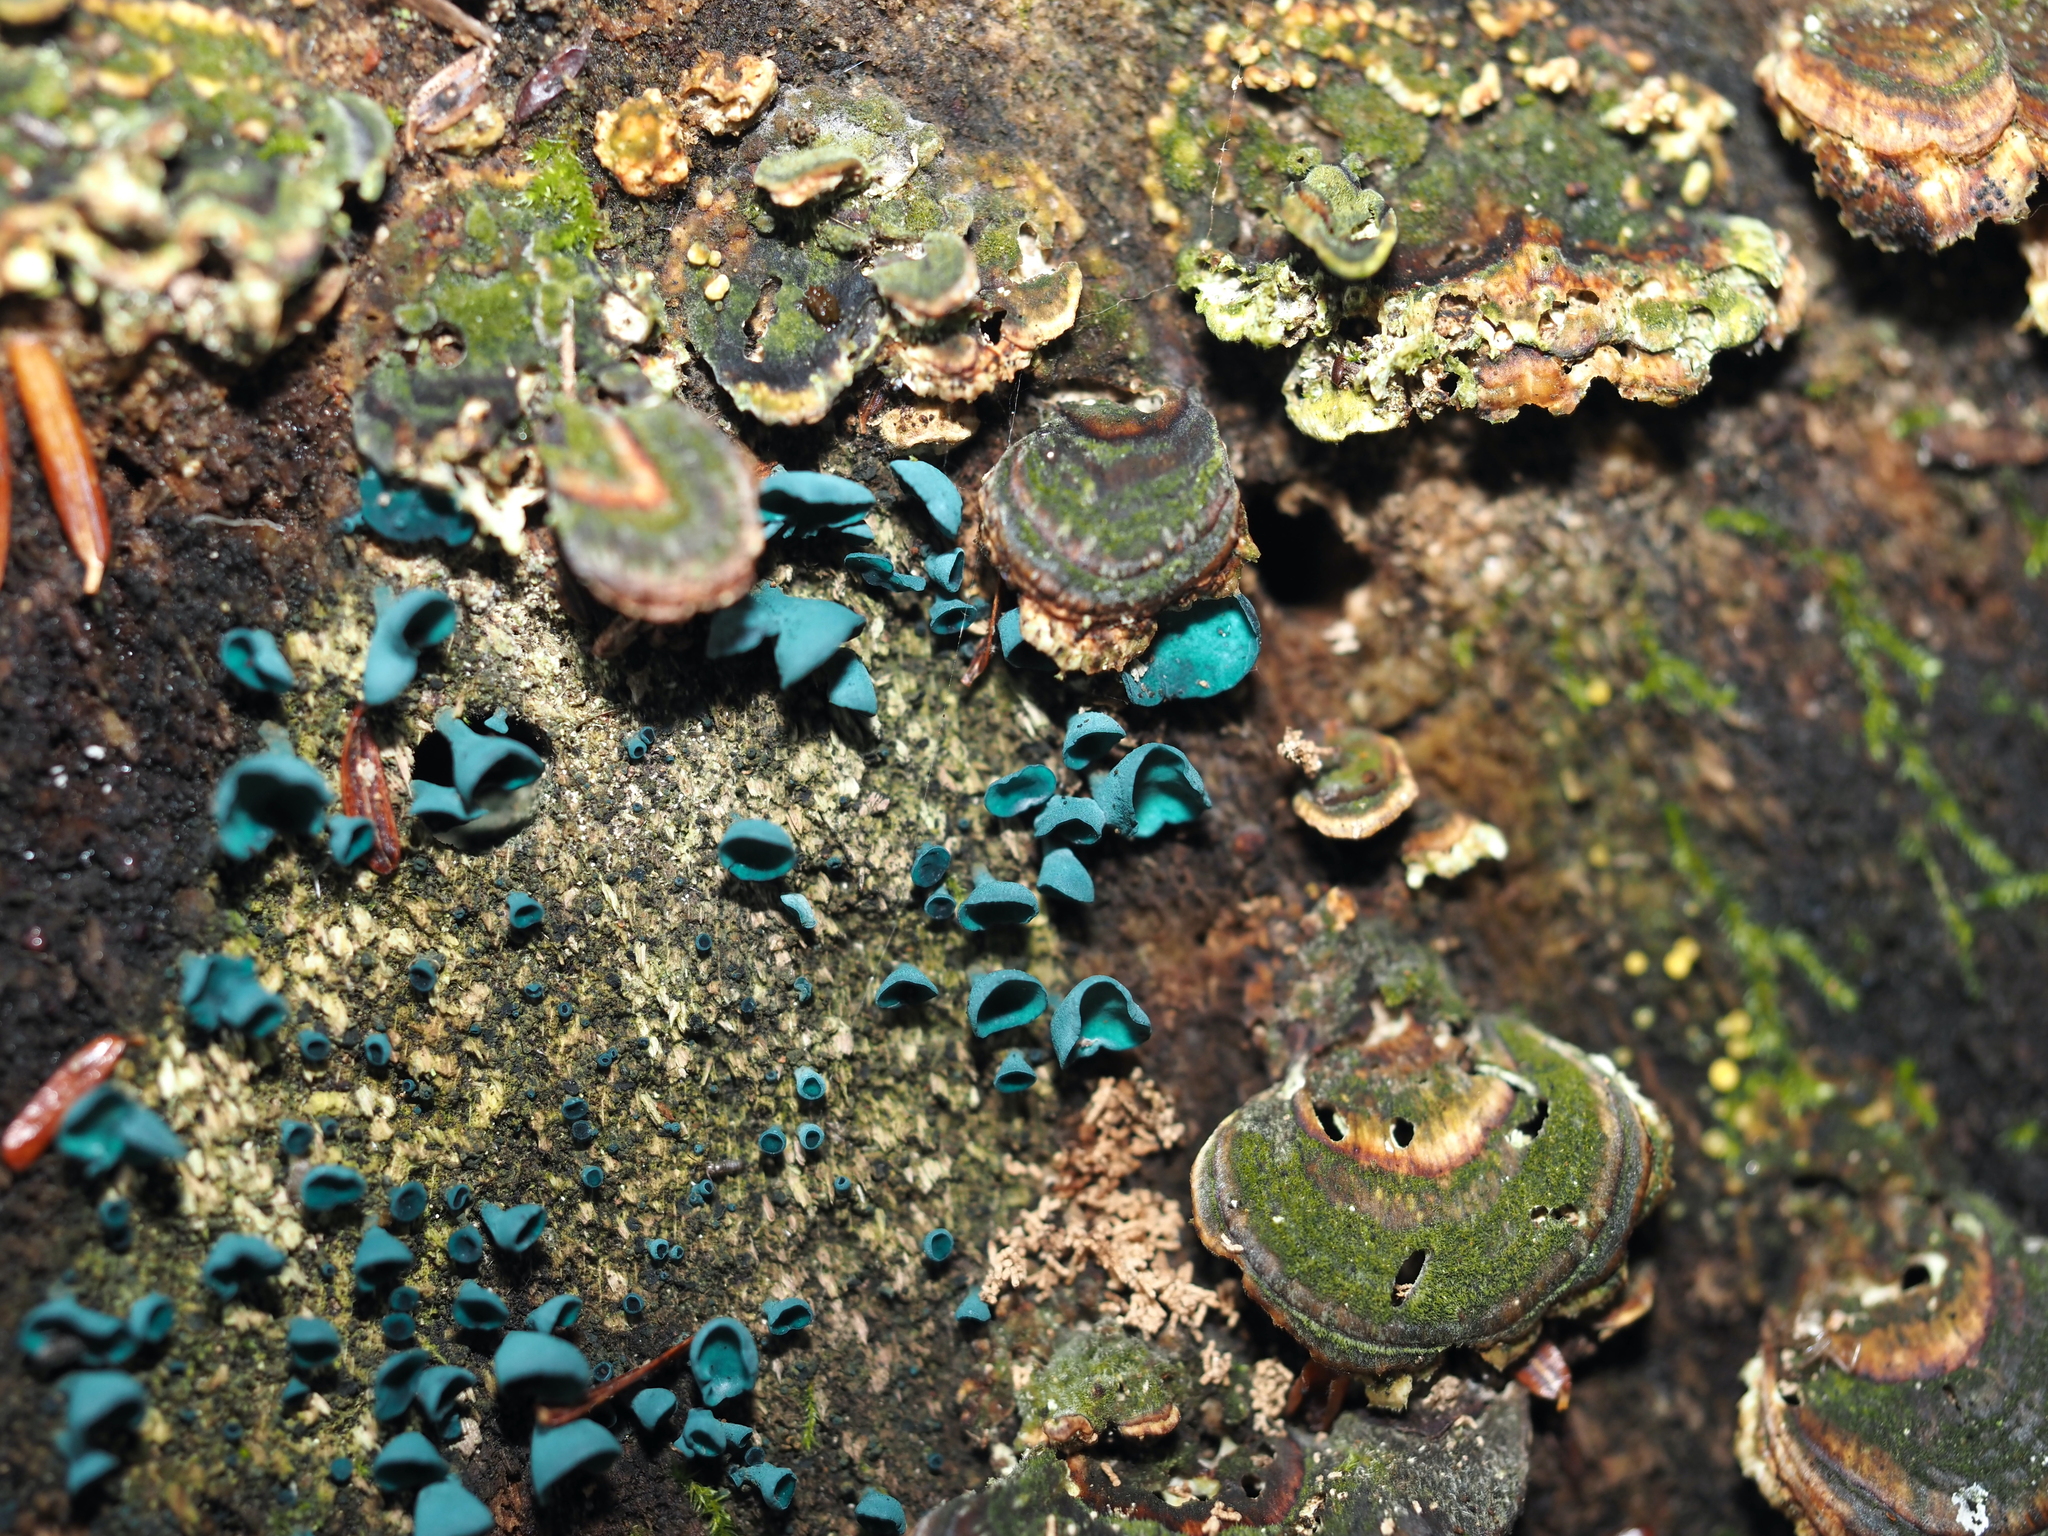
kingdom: Fungi
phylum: Ascomycota
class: Leotiomycetes
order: Helotiales
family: Chlorociboriaceae
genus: Chlorociboria
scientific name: Chlorociboria aeruginascens
